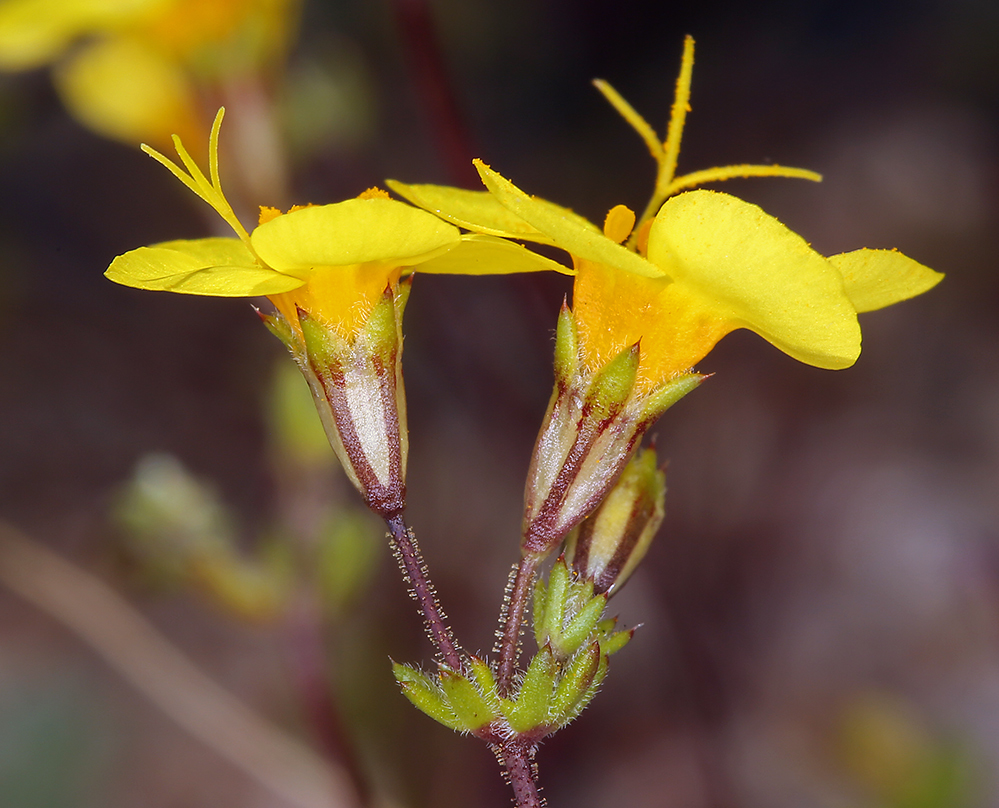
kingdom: Plantae
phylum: Tracheophyta
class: Magnoliopsida
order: Ericales
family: Polemoniaceae
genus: Leptosiphon
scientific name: Leptosiphon chrysanthus
